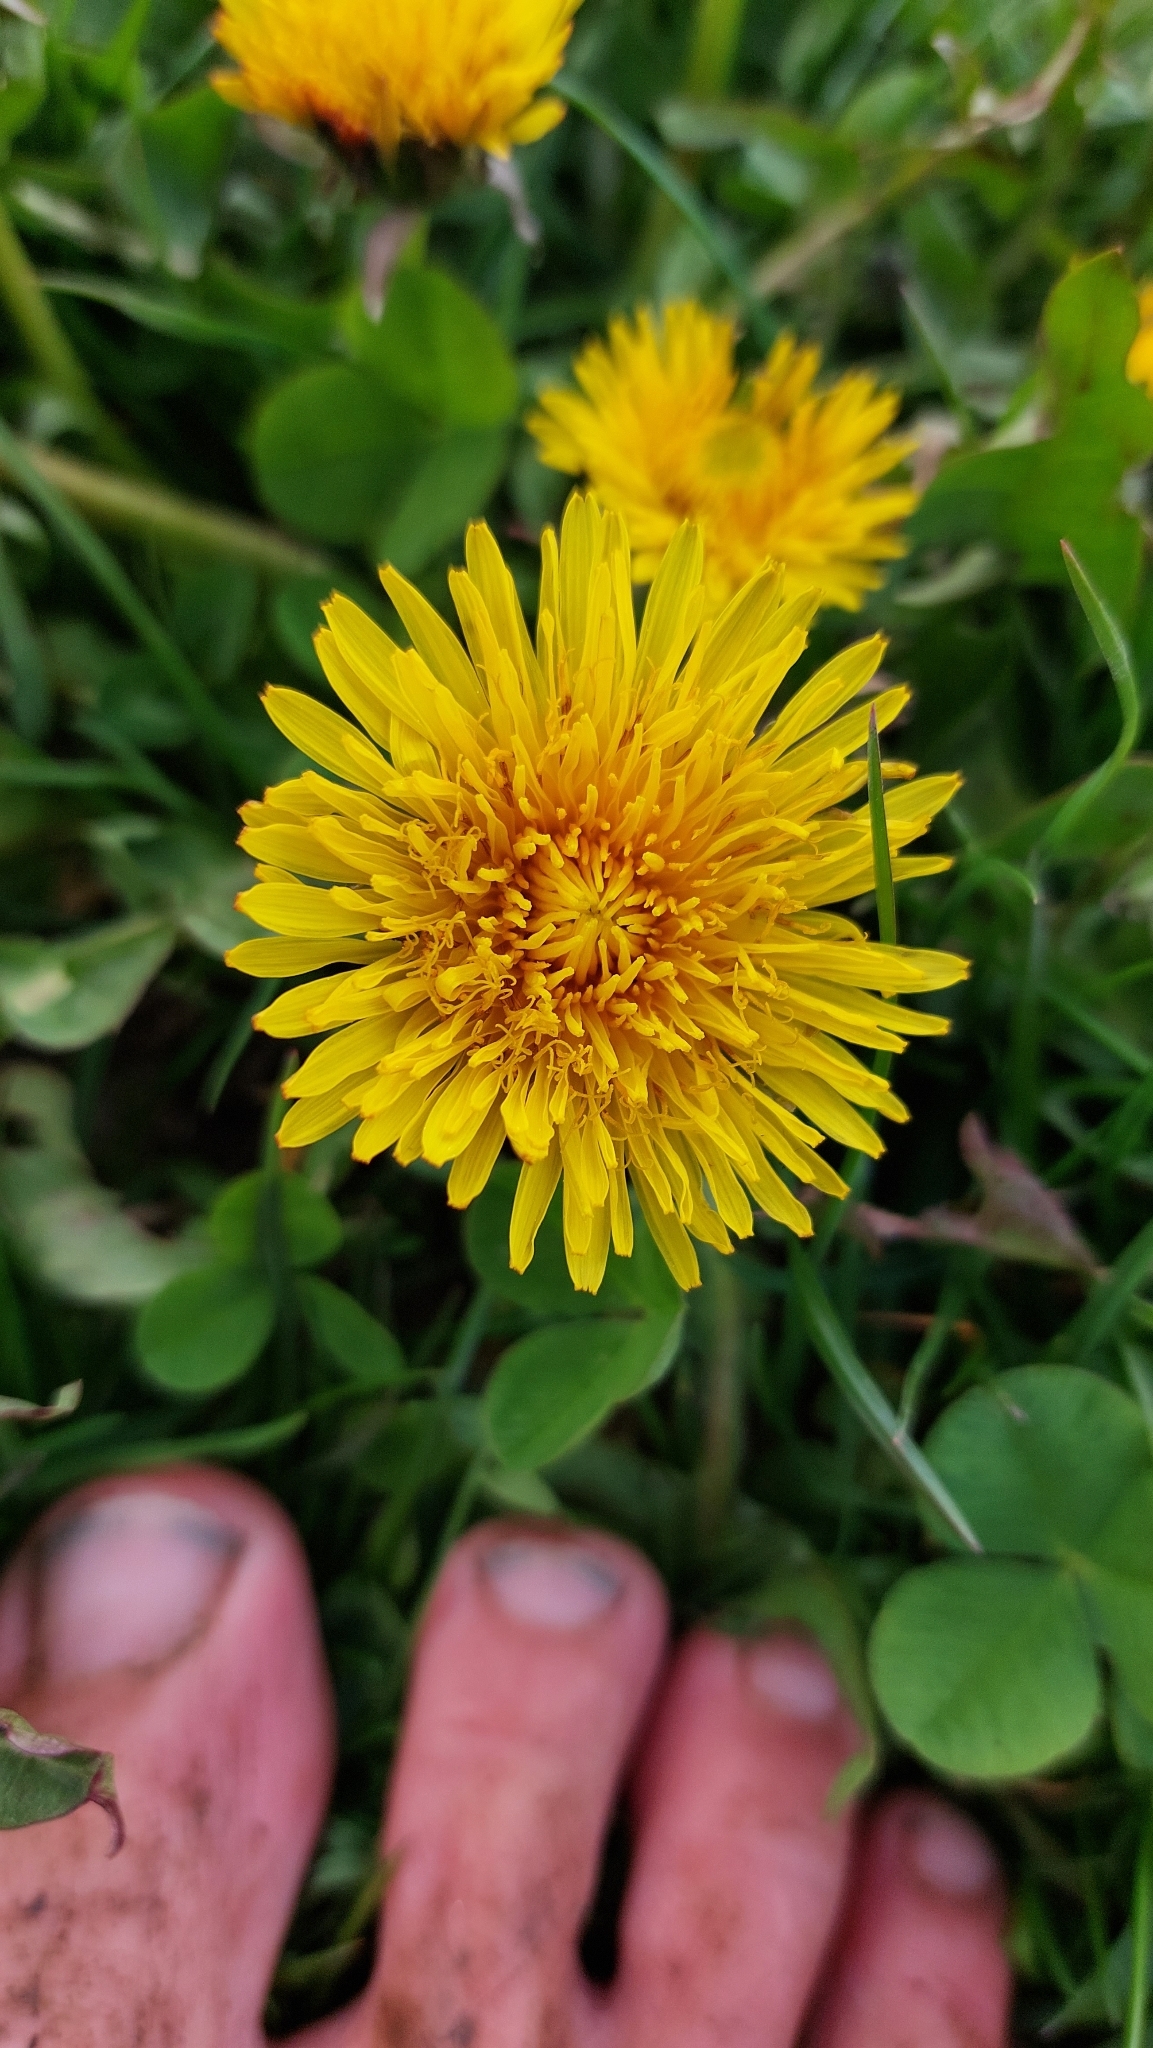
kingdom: Plantae
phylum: Tracheophyta
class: Magnoliopsida
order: Asterales
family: Asteraceae
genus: Taraxacum
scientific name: Taraxacum
